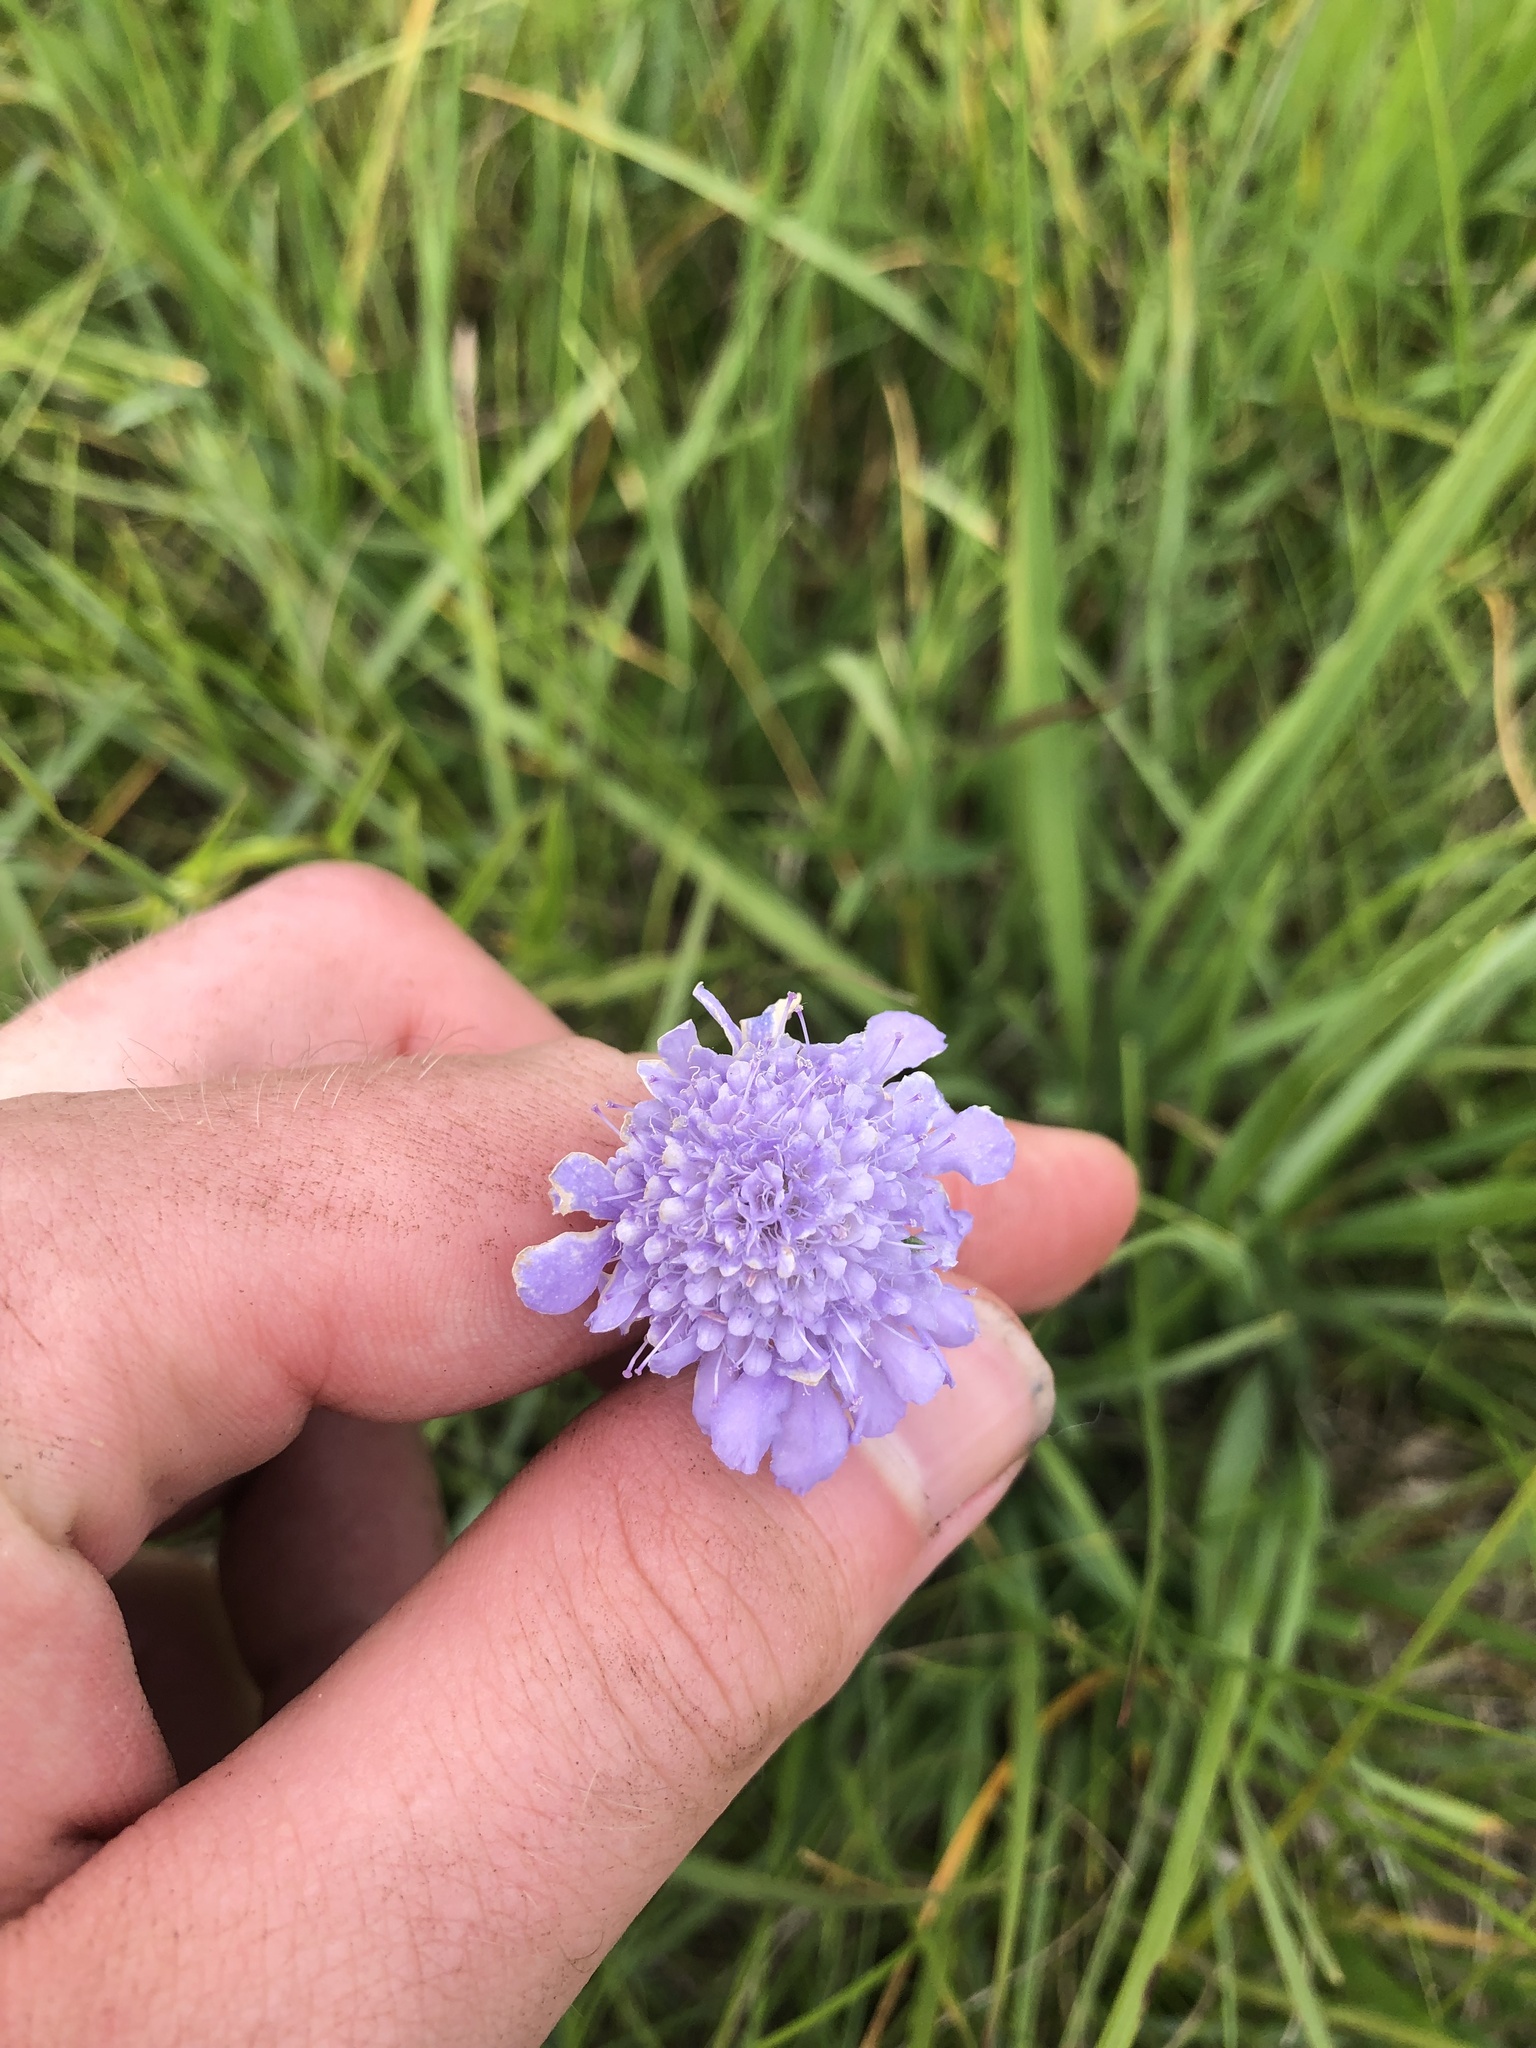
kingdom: Plantae
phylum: Tracheophyta
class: Magnoliopsida
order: Dipsacales
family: Caprifoliaceae
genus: Scabiosa
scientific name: Scabiosa canescens
